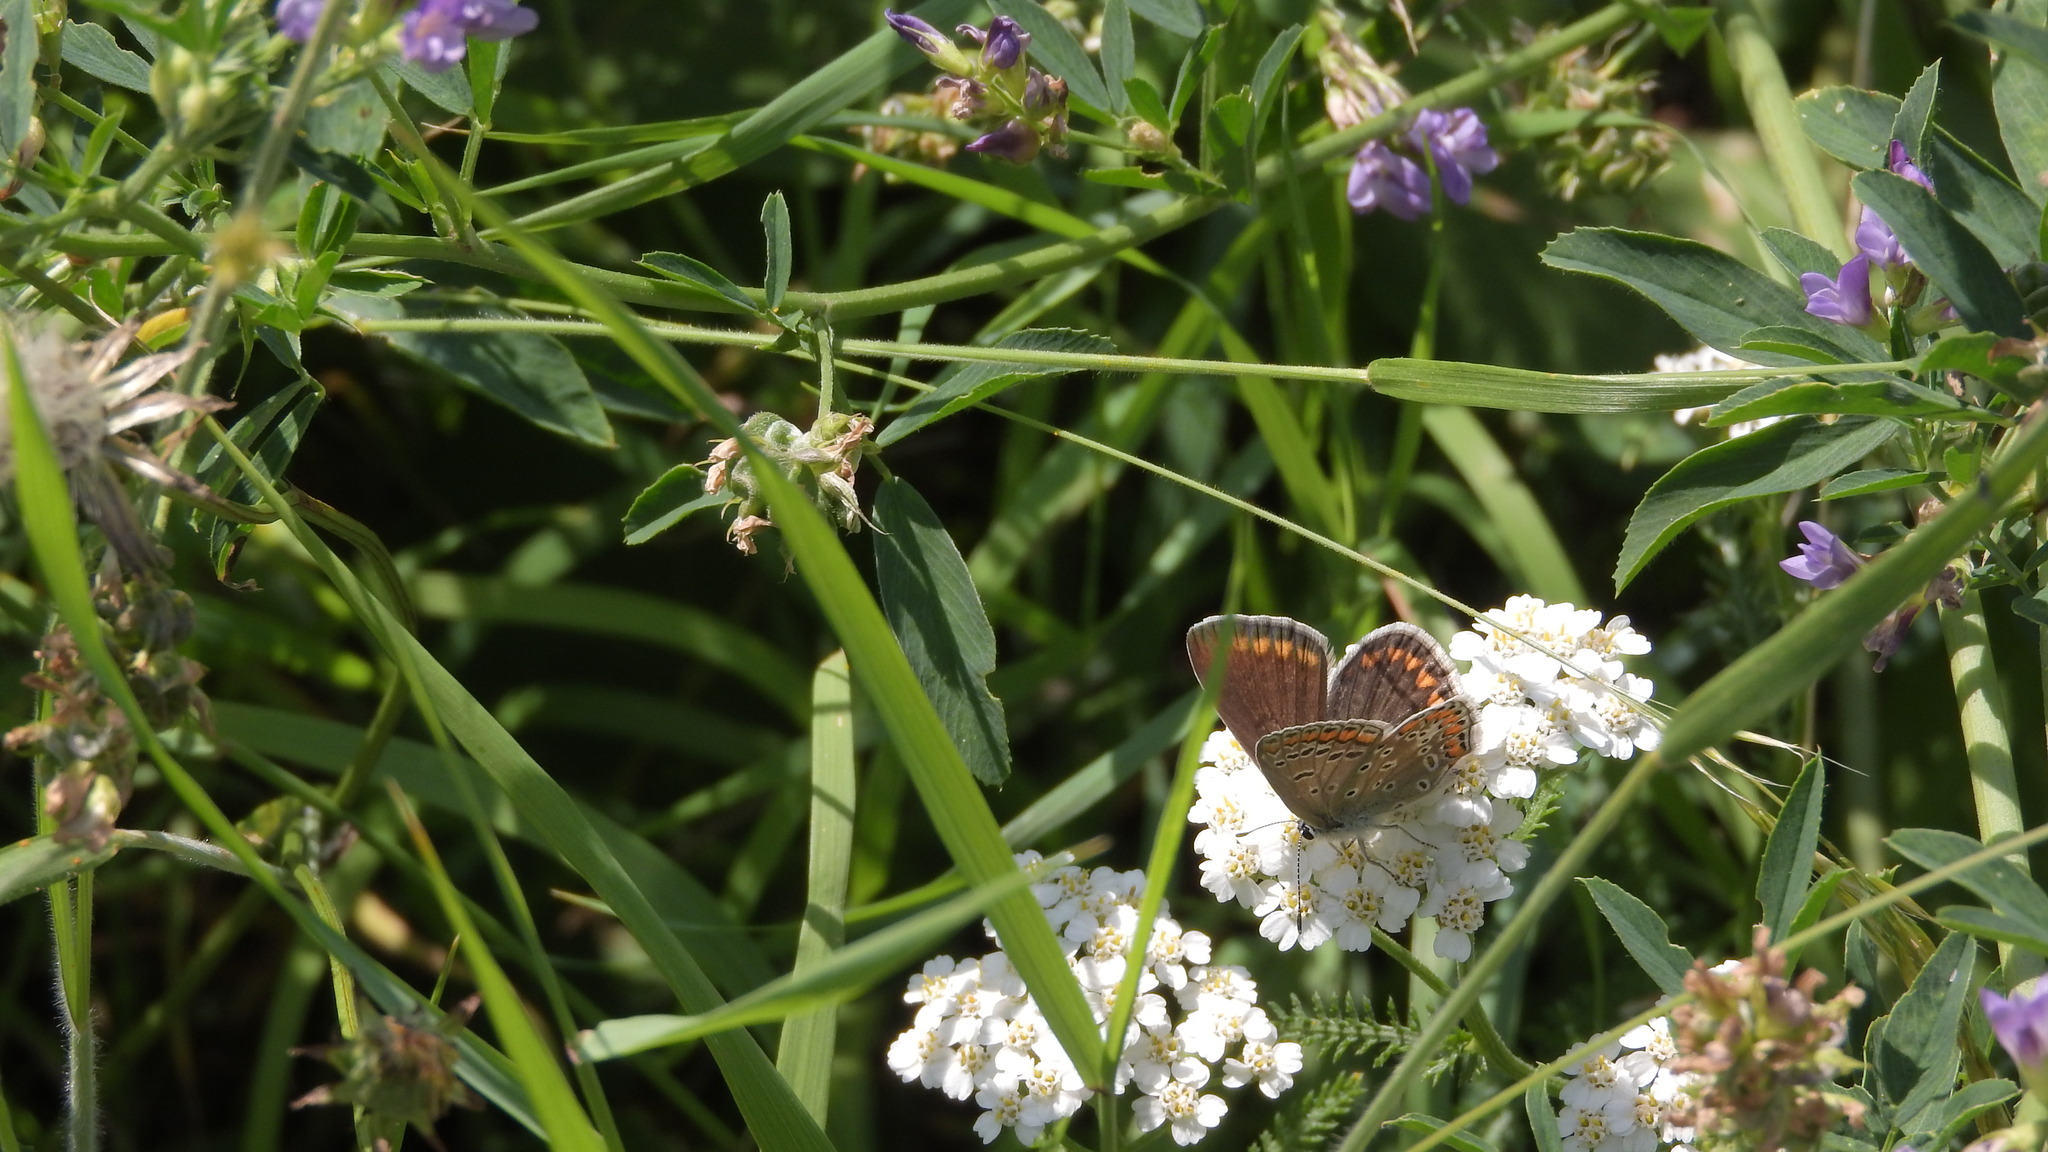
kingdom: Animalia
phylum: Arthropoda
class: Insecta
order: Lepidoptera
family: Lycaenidae
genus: Polyommatus
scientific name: Polyommatus icarus
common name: Common blue
